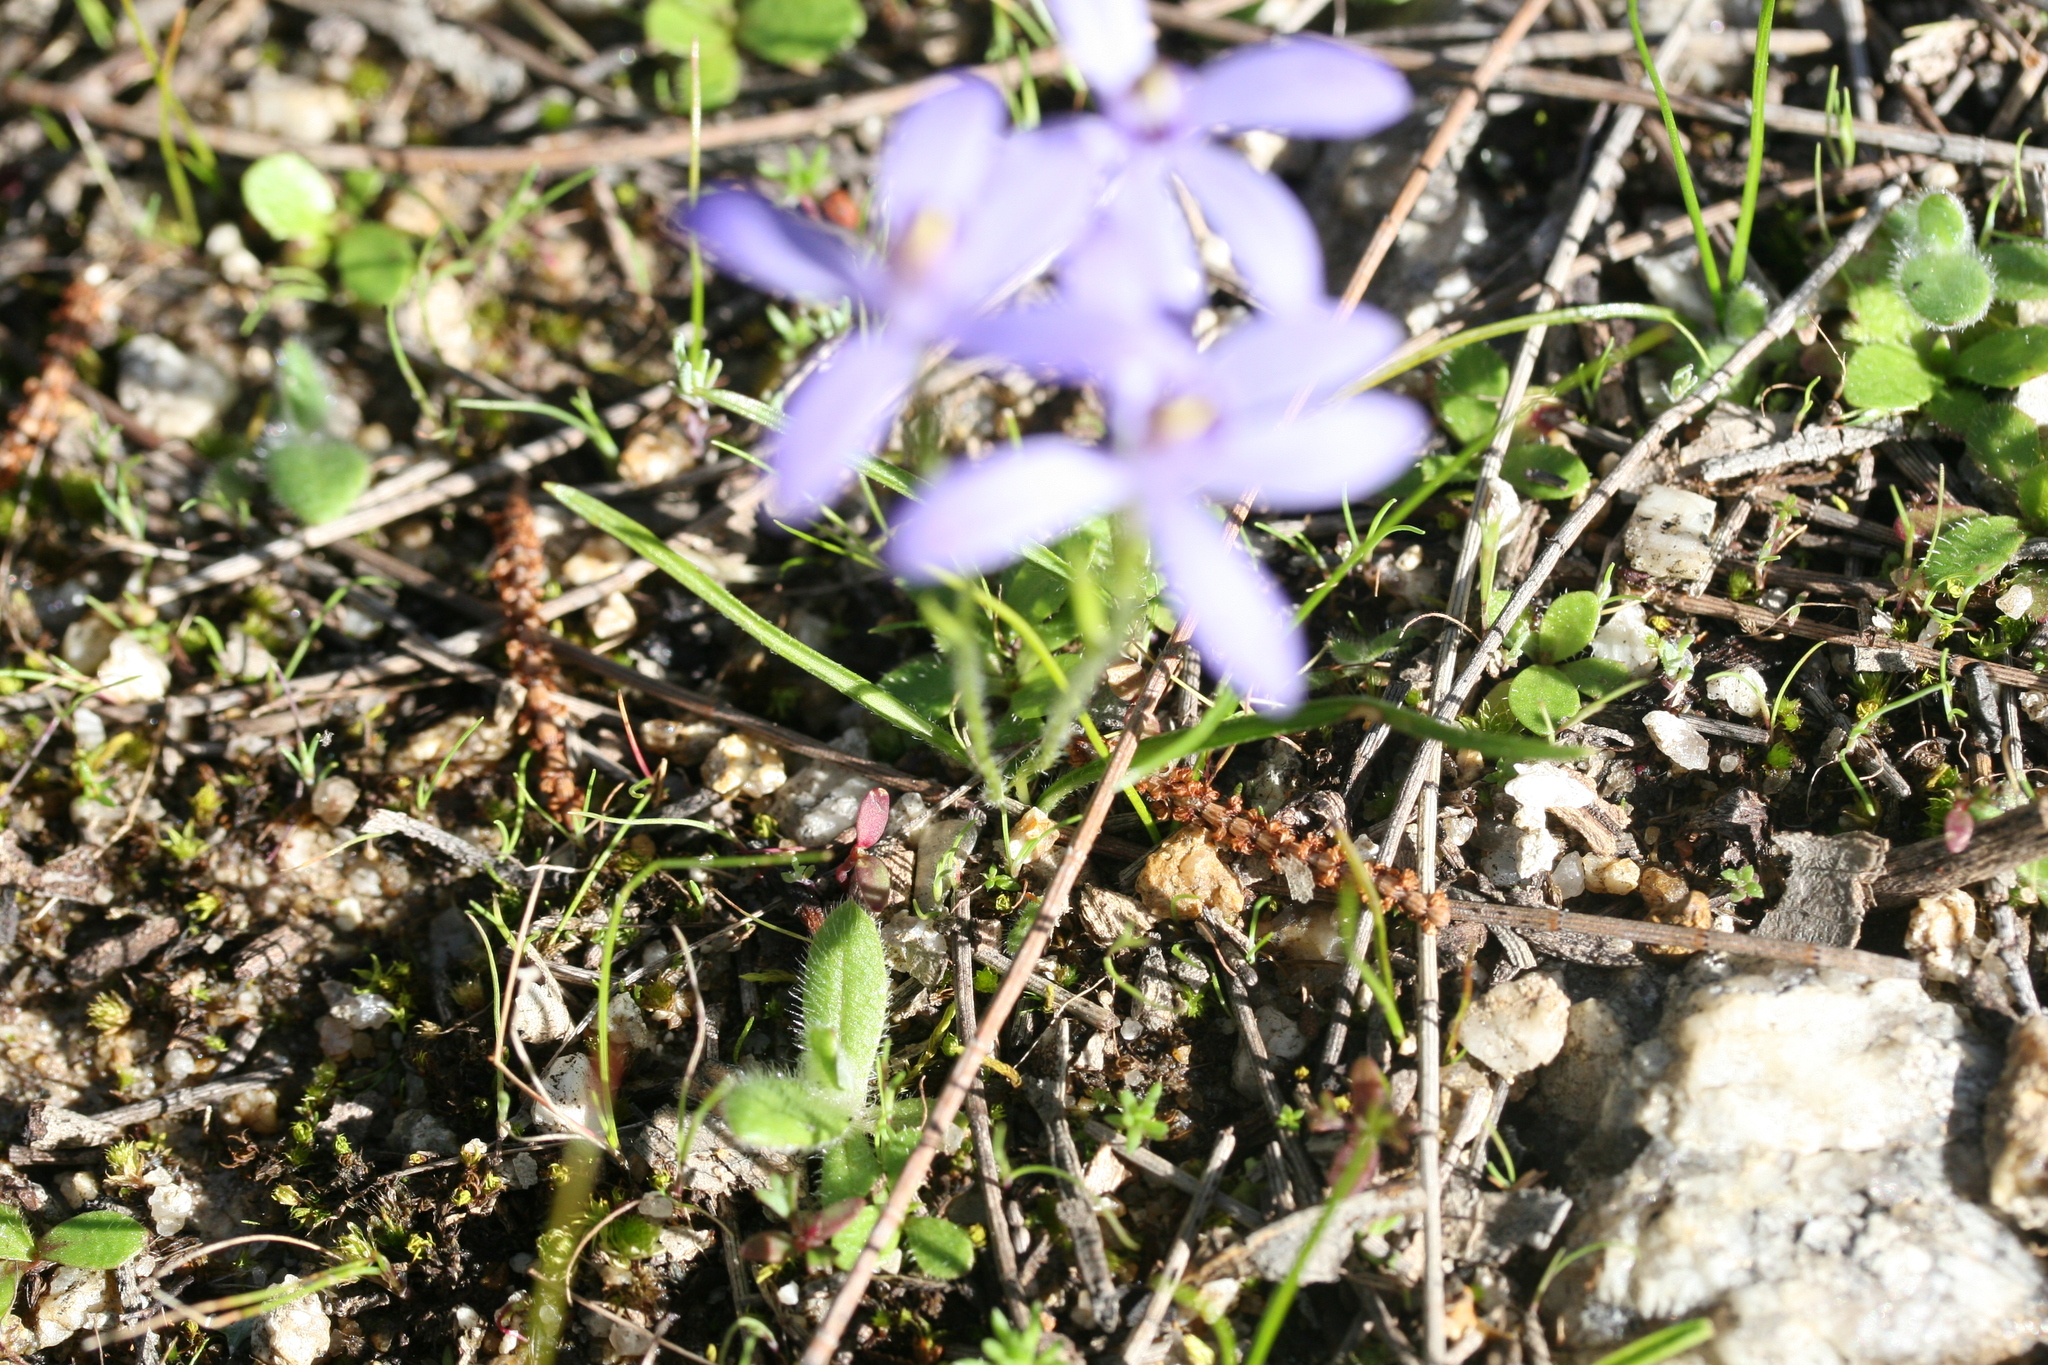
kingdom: Plantae
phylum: Tracheophyta
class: Liliopsida
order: Asparagales
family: Orchidaceae
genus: Pheladenia
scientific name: Pheladenia deformis
